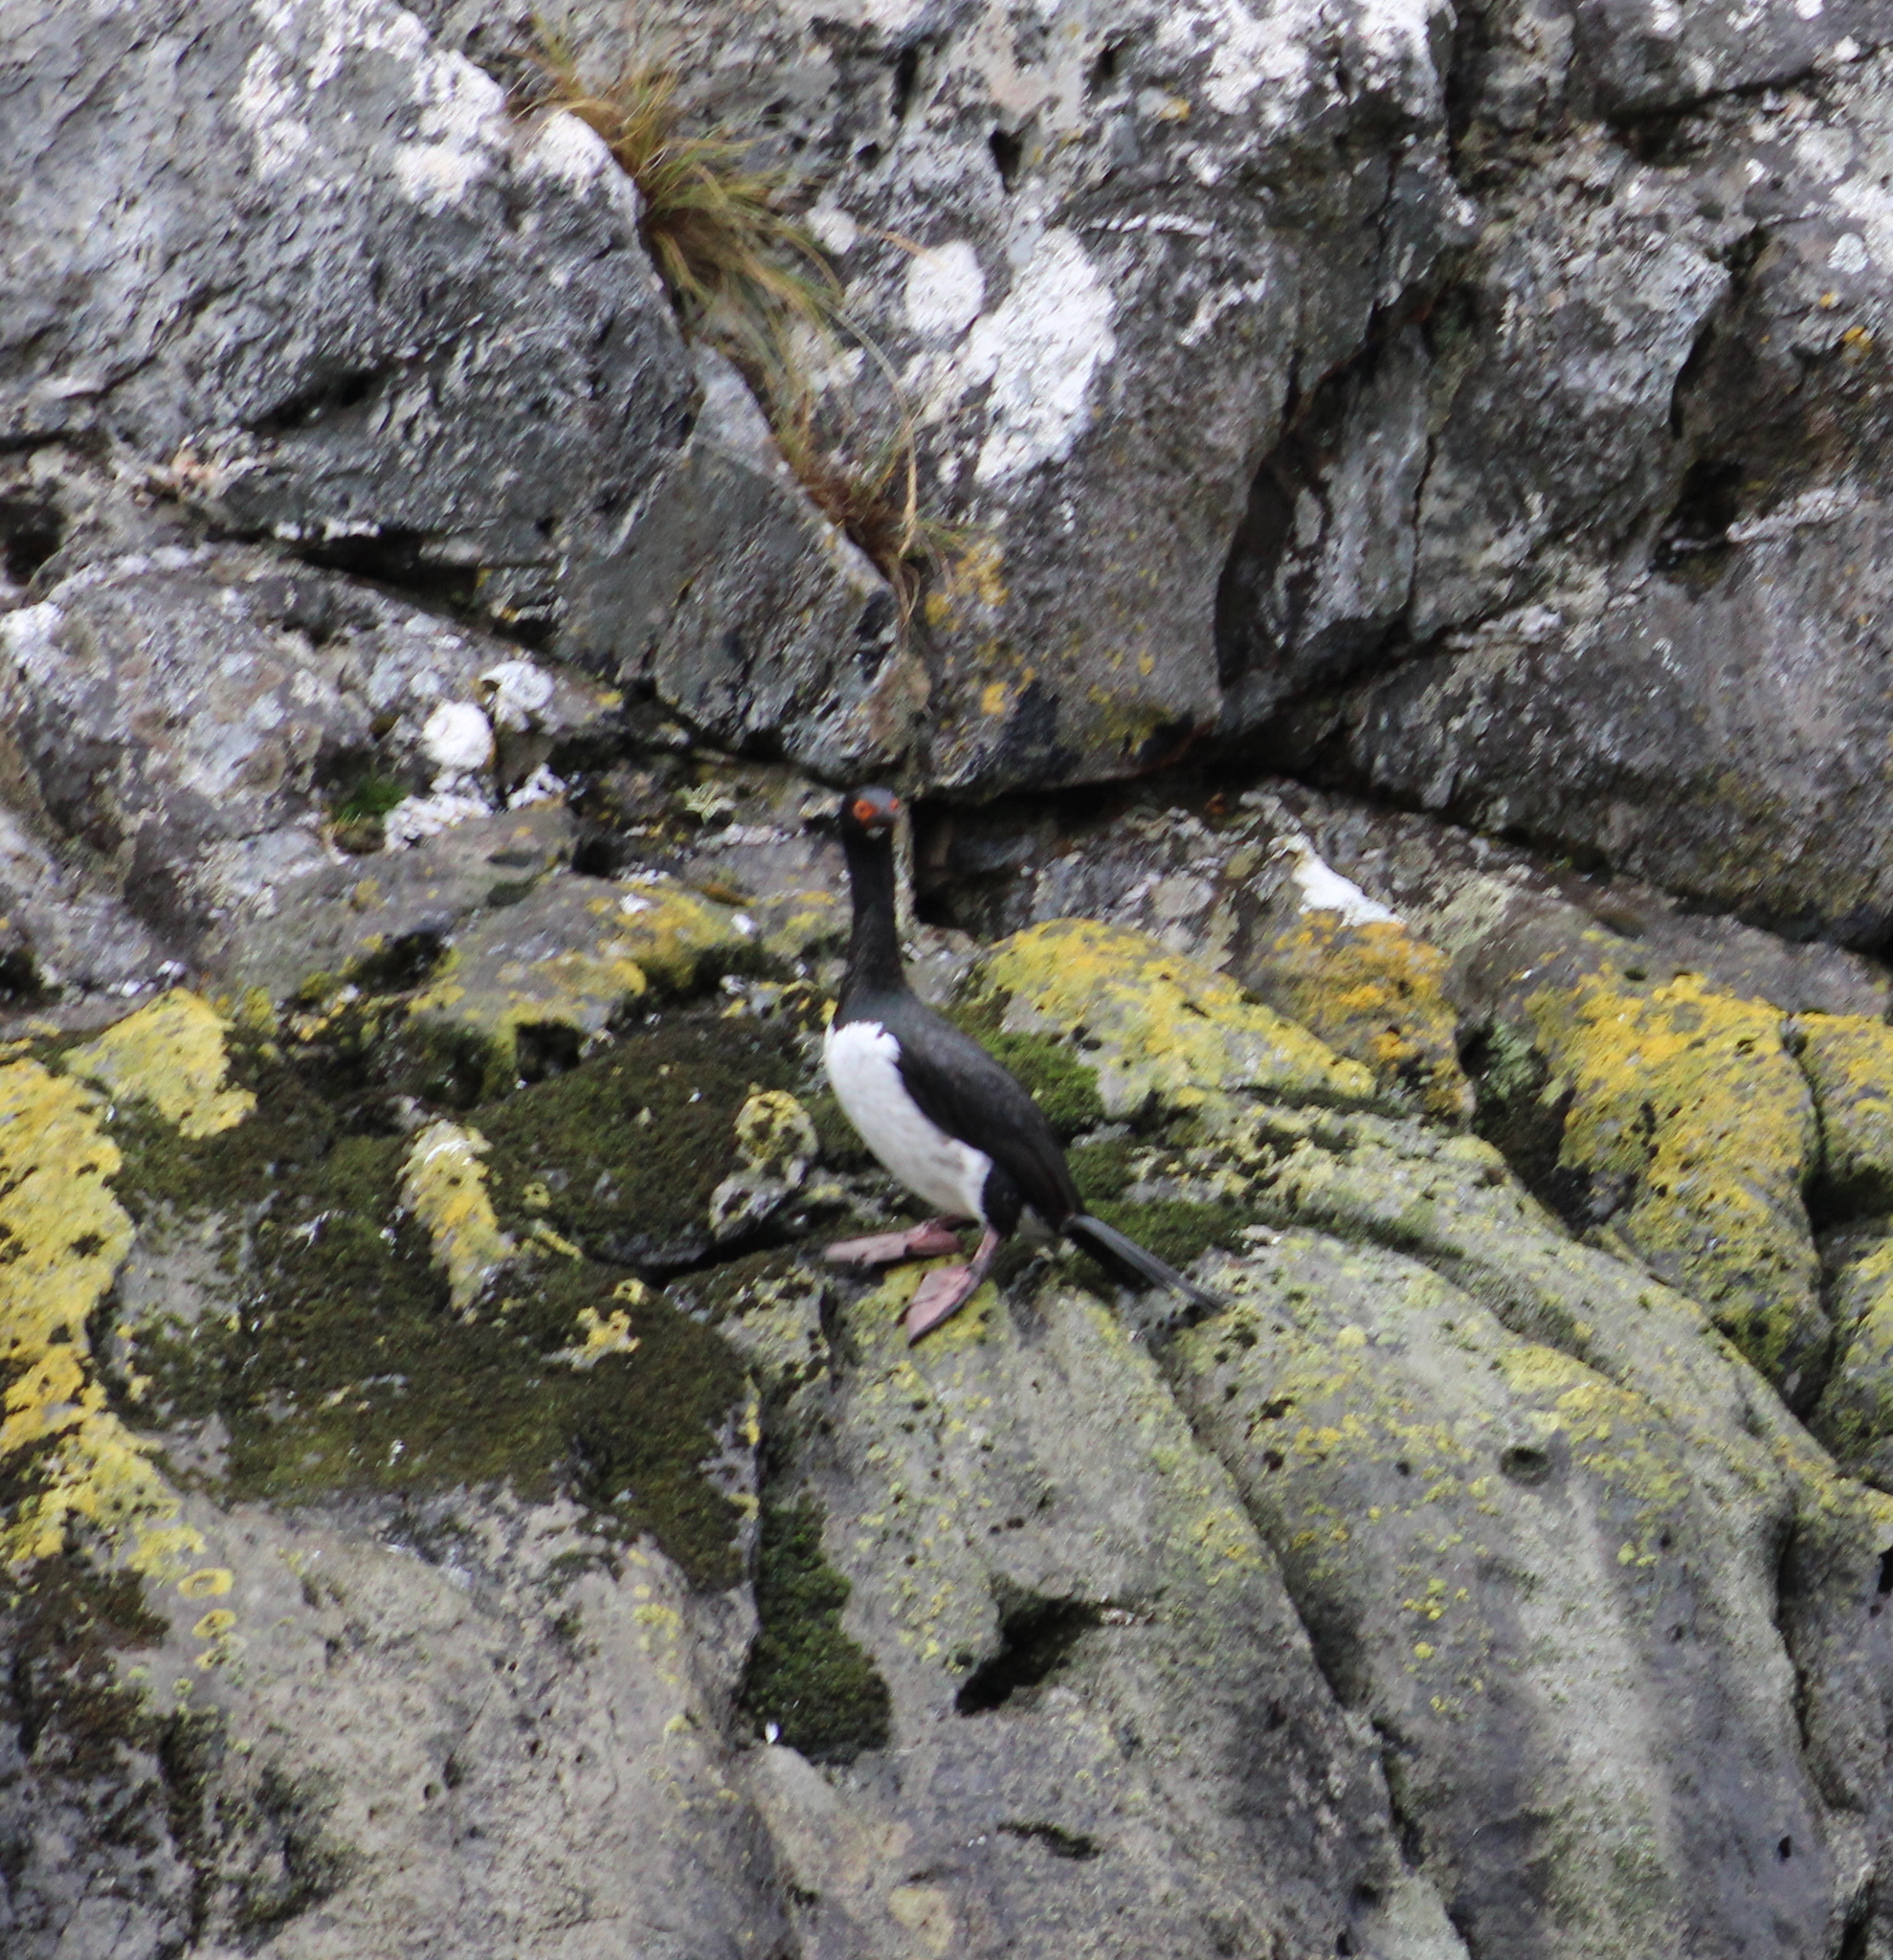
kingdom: Animalia
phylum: Chordata
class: Aves
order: Suliformes
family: Phalacrocoracidae
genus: Phalacrocorax
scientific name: Phalacrocorax magellanicus
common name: Rock shag
